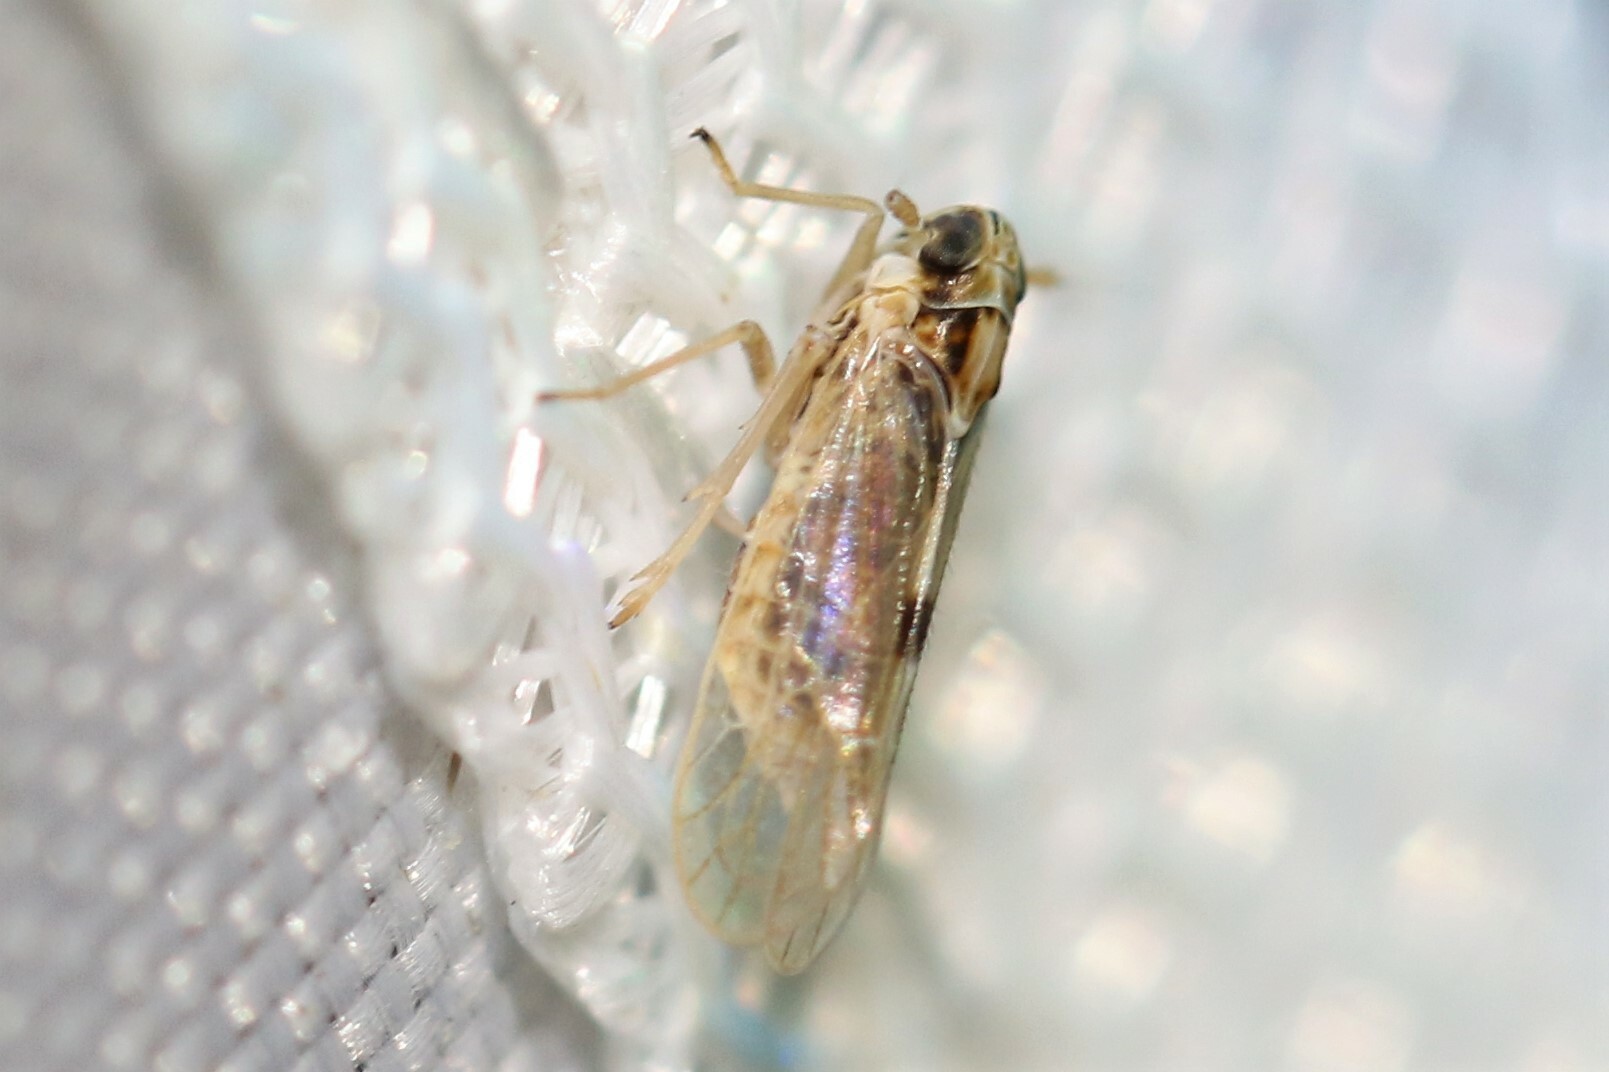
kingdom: Animalia
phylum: Arthropoda
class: Insecta
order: Hemiptera
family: Delphacidae
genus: Laodelphax
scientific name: Laodelphax striatellus
